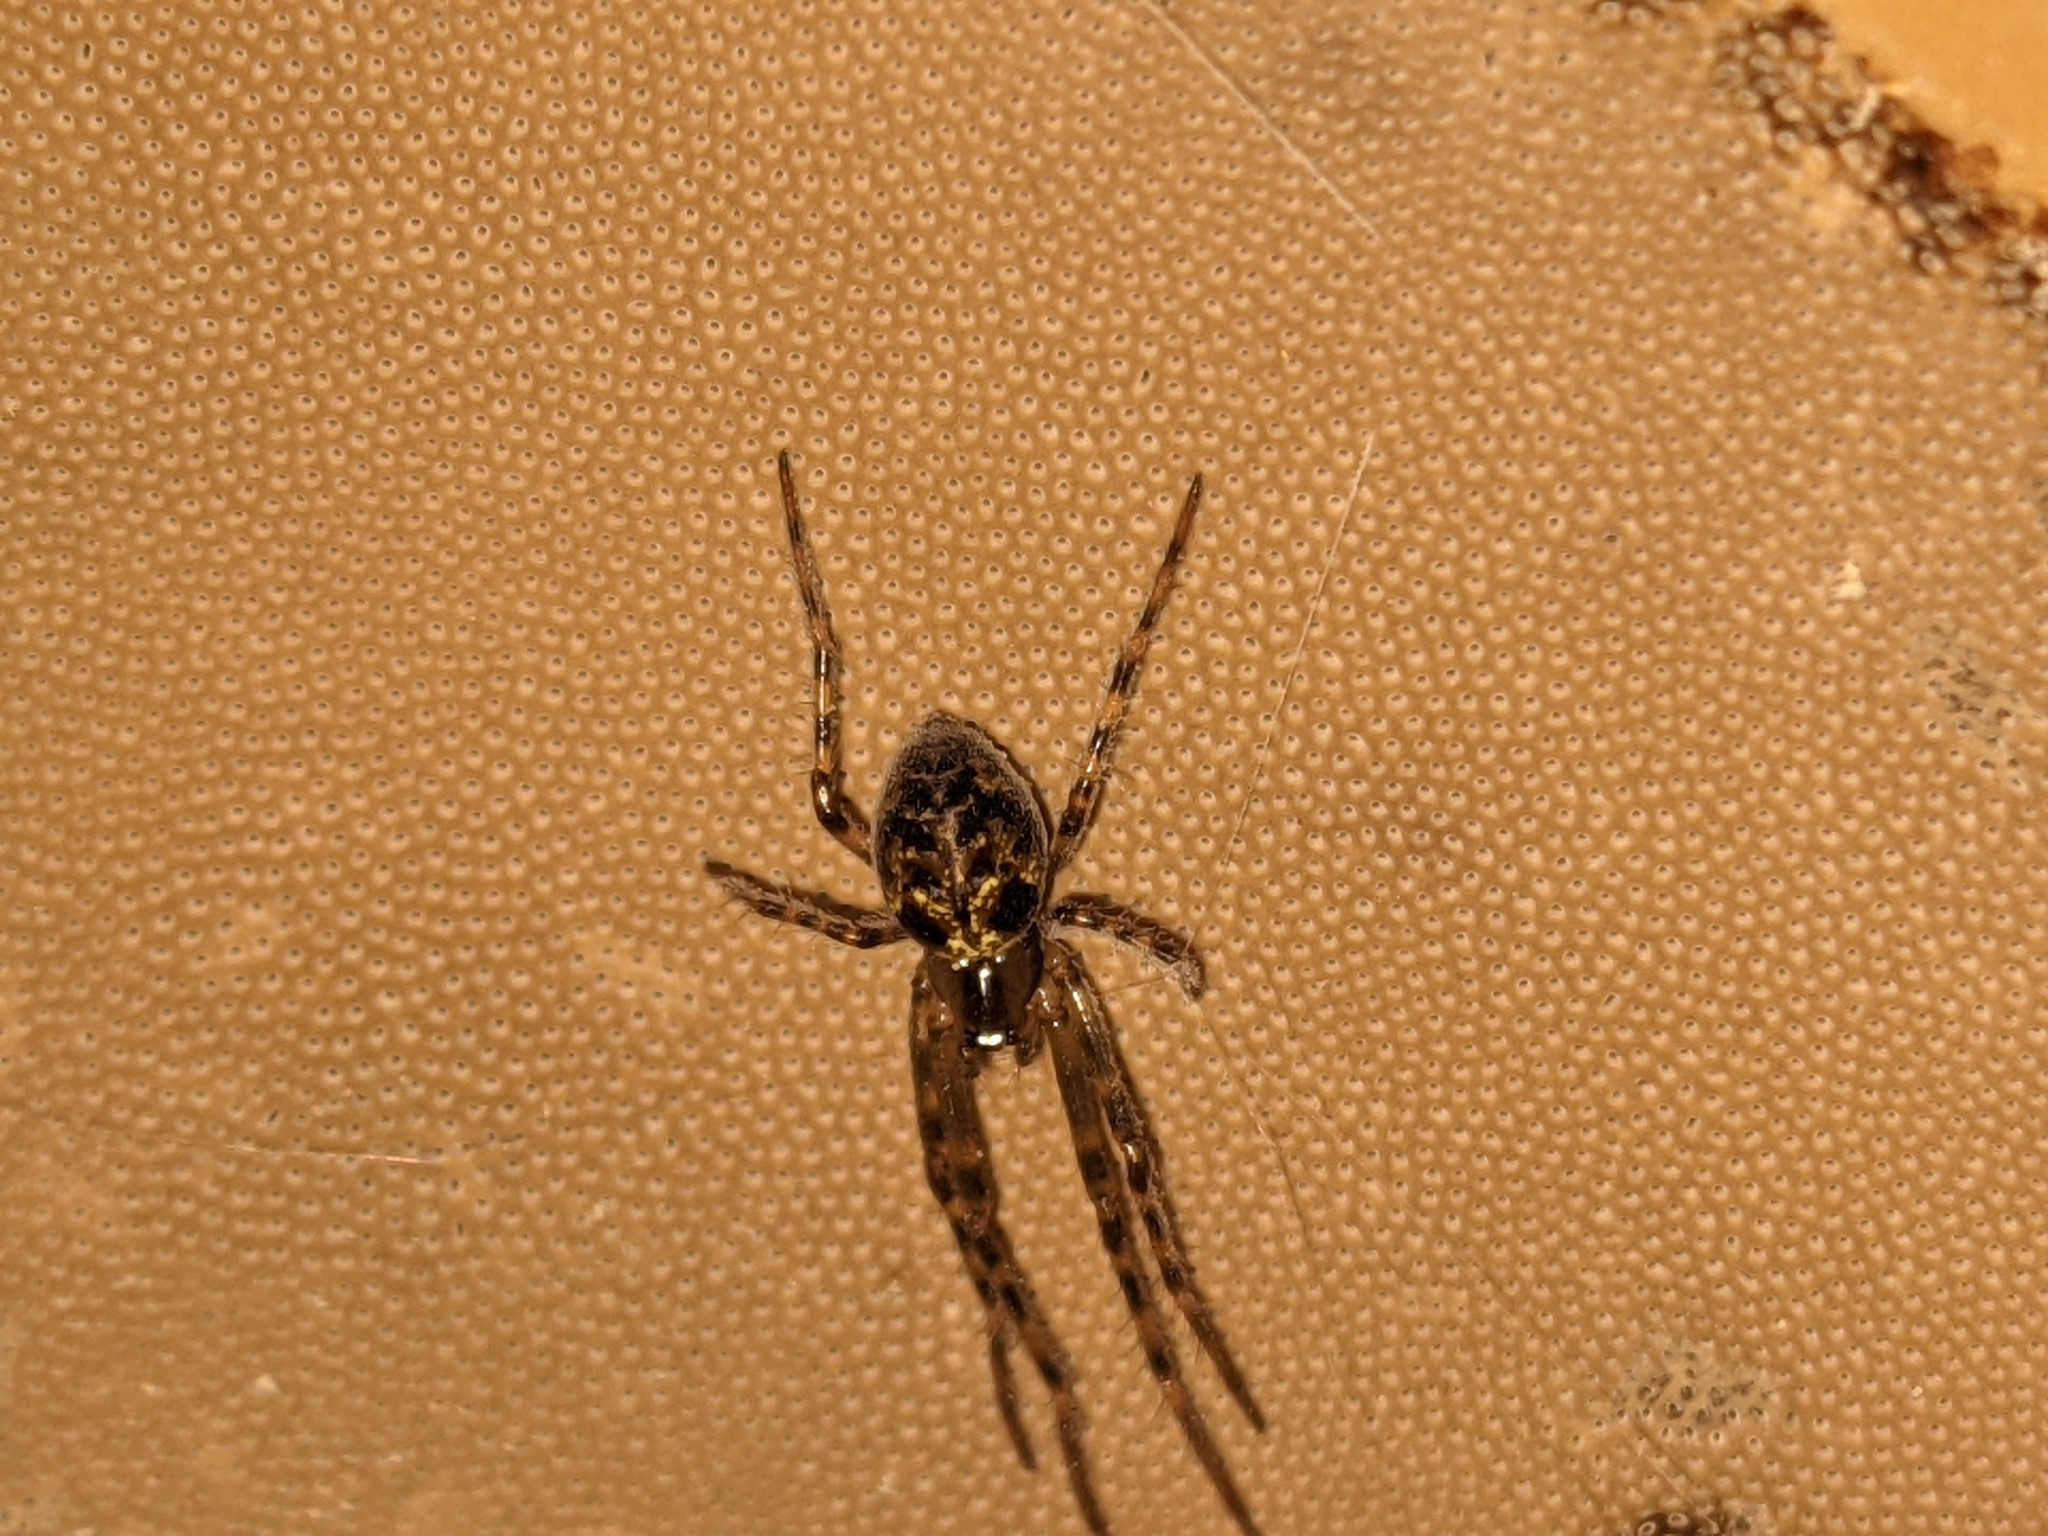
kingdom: Animalia
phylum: Arthropoda
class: Arachnida
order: Araneae
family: Tetragnathidae
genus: Meta
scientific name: Meta ovalis
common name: Eastern cave long-jawed spider
